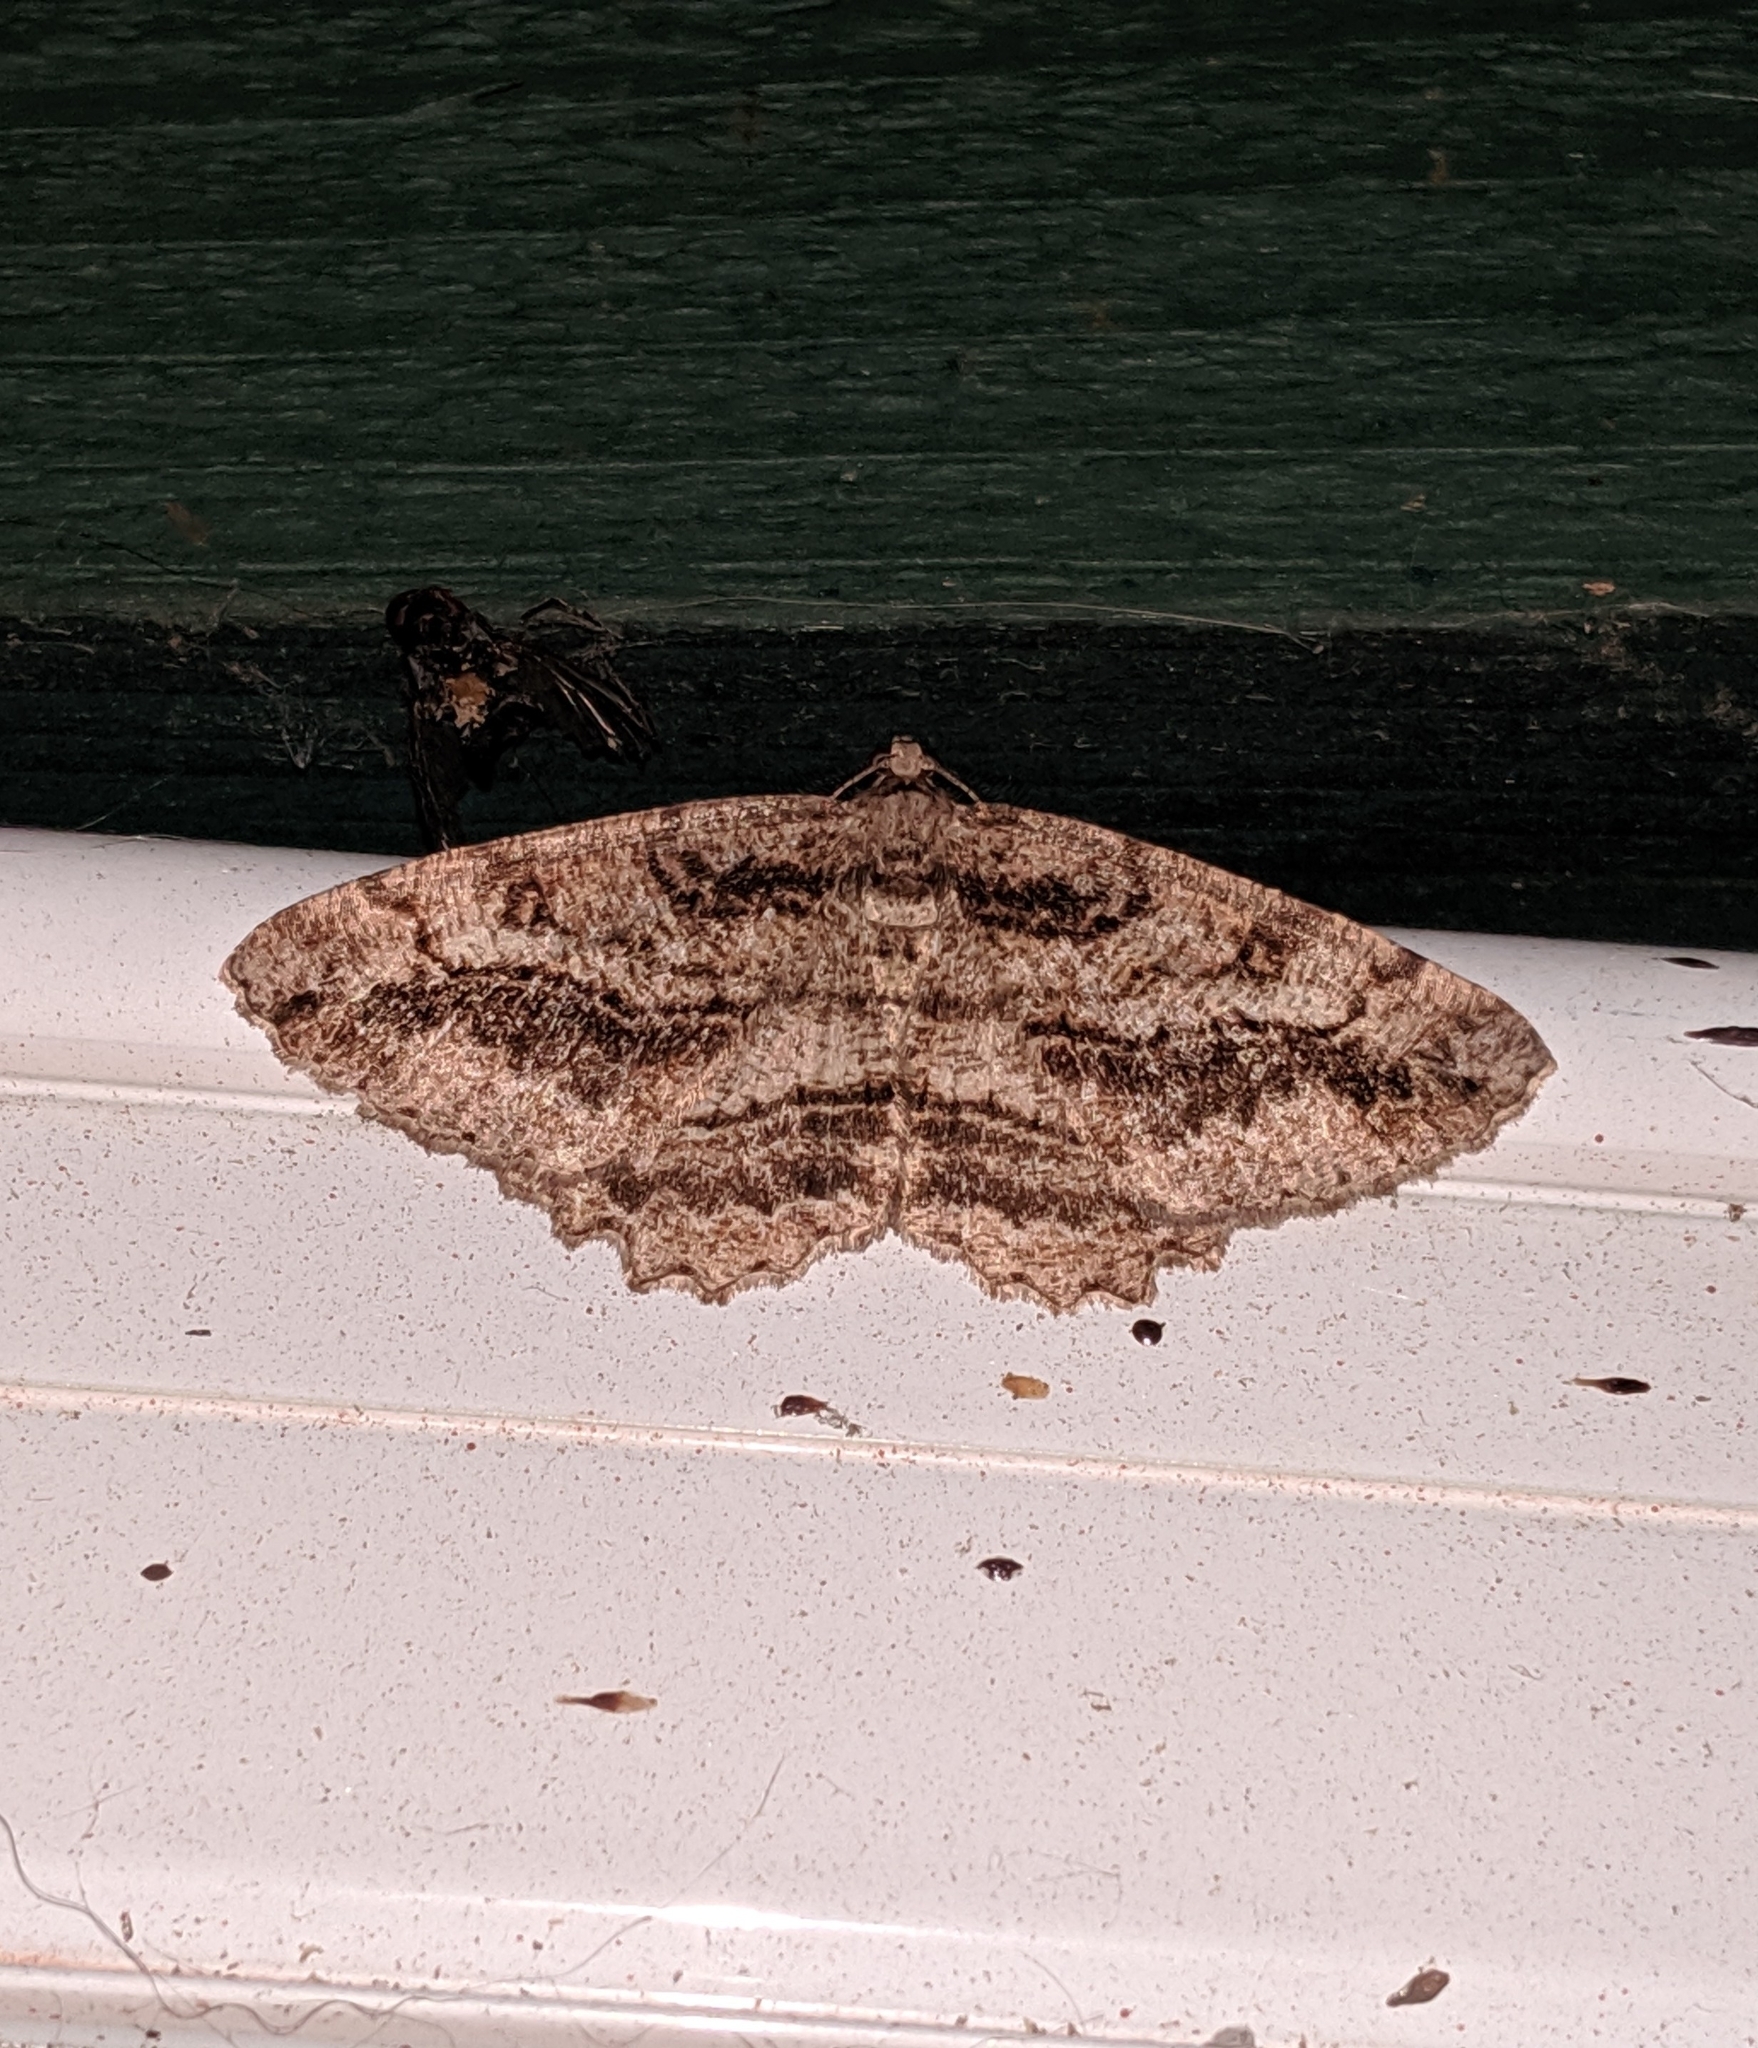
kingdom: Animalia
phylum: Arthropoda
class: Insecta
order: Lepidoptera
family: Geometridae
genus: Neoalcis
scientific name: Neoalcis californiaria
